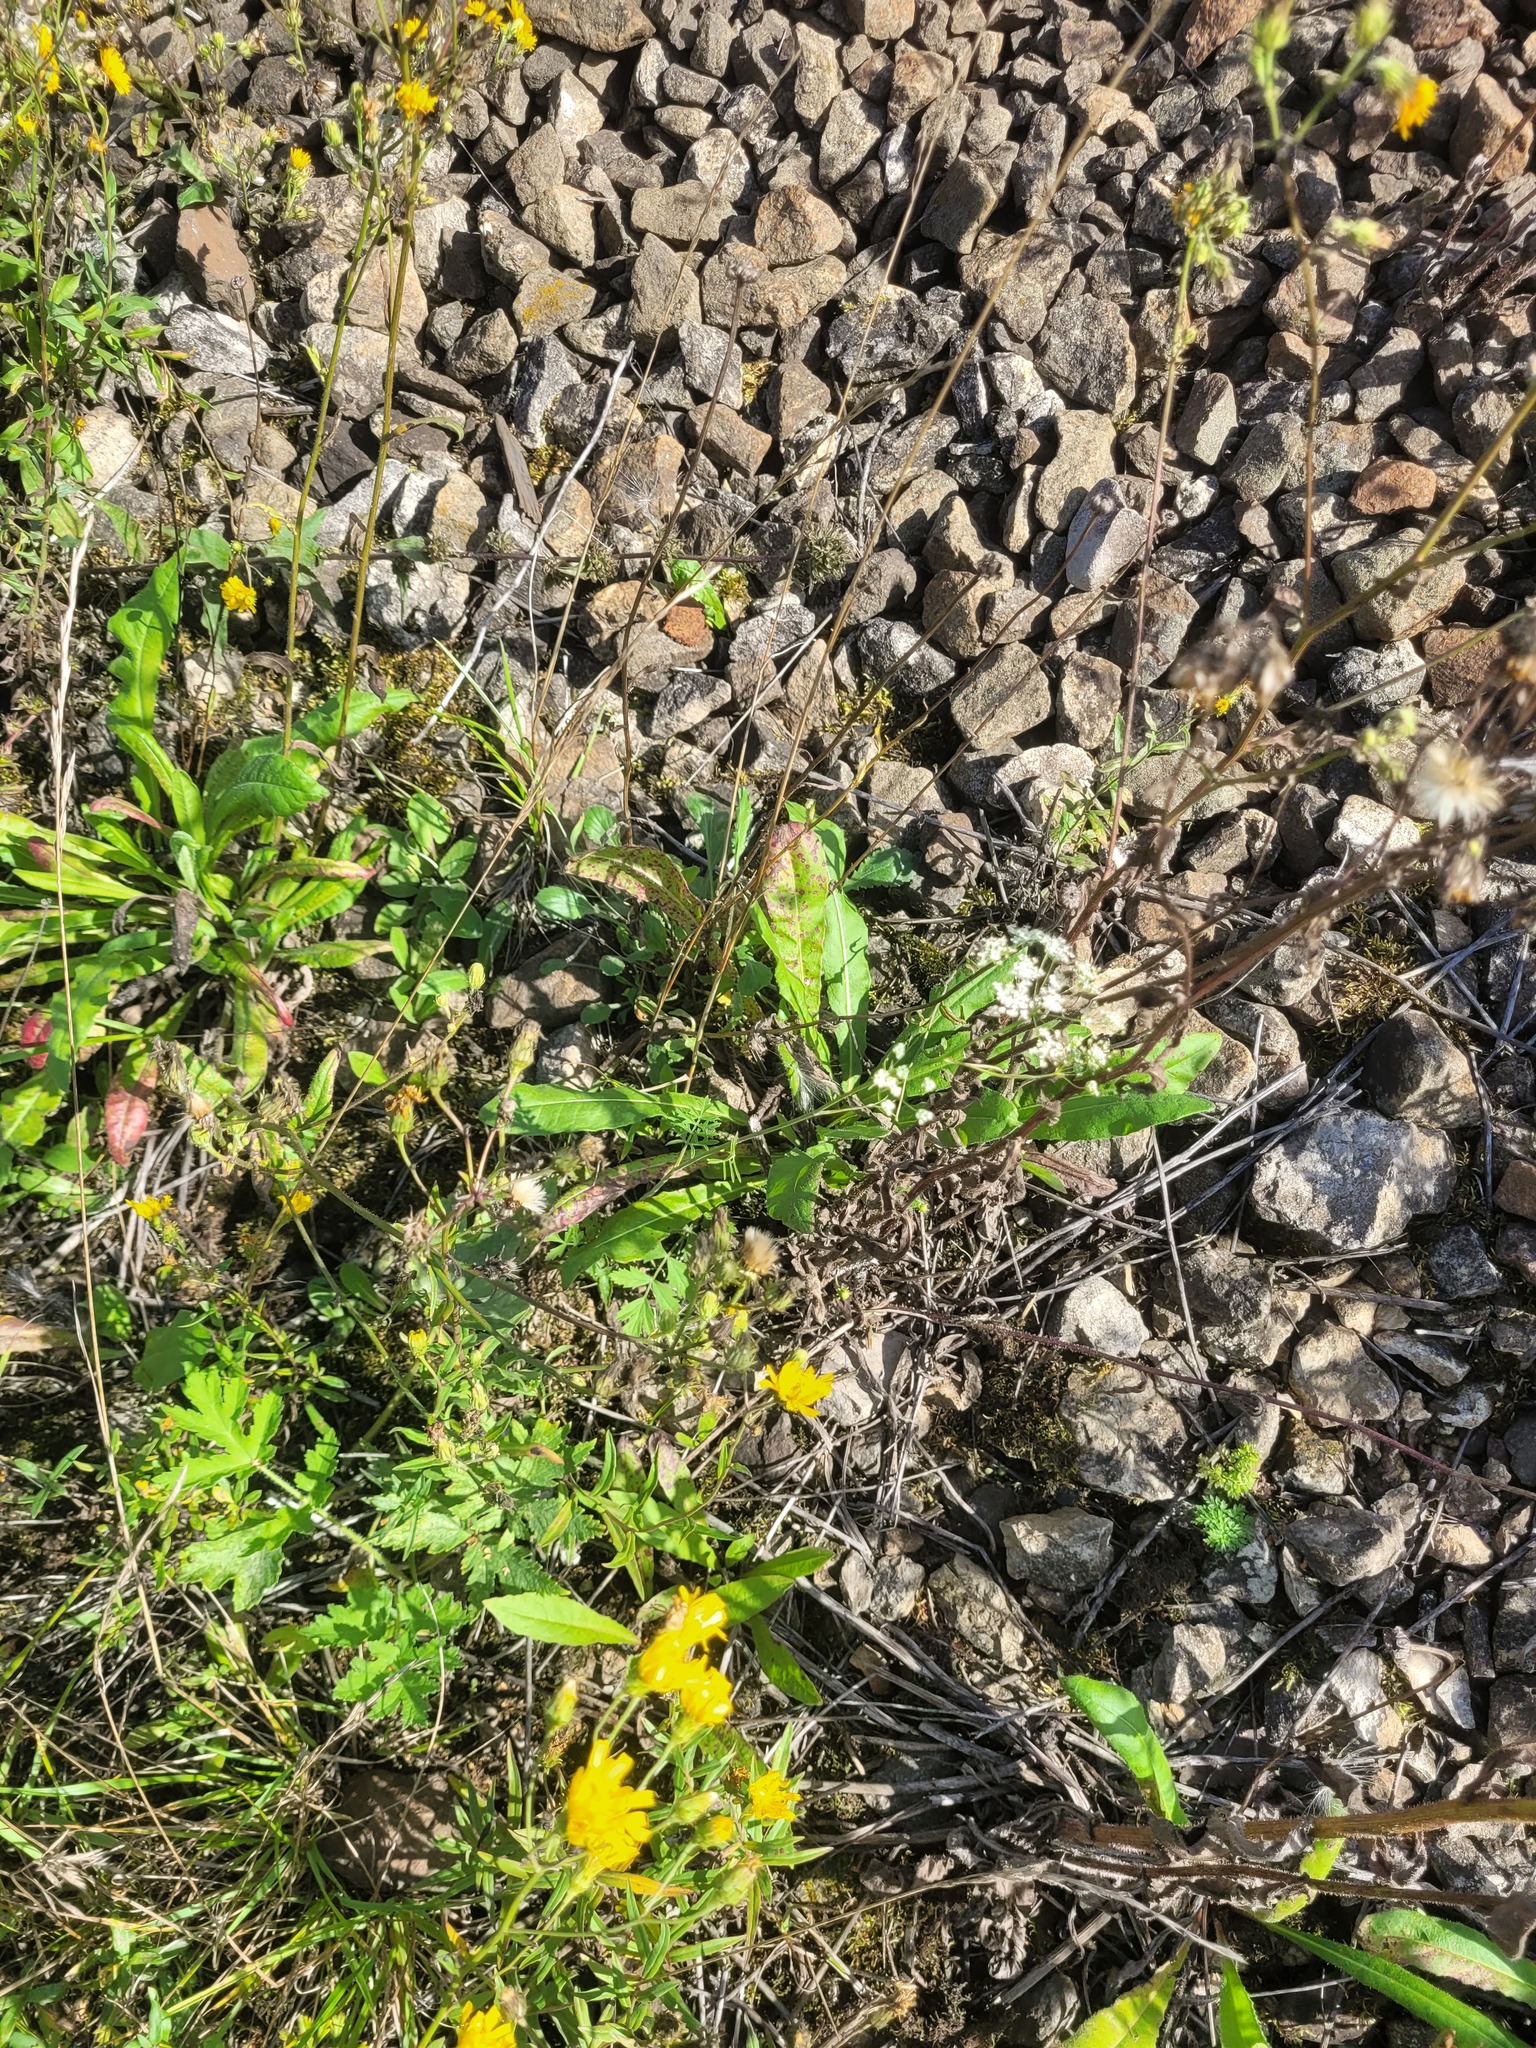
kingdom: Plantae
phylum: Tracheophyta
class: Magnoliopsida
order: Apiales
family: Apiaceae
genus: Pimpinella
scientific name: Pimpinella saxifraga
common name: Burnet-saxifrage
